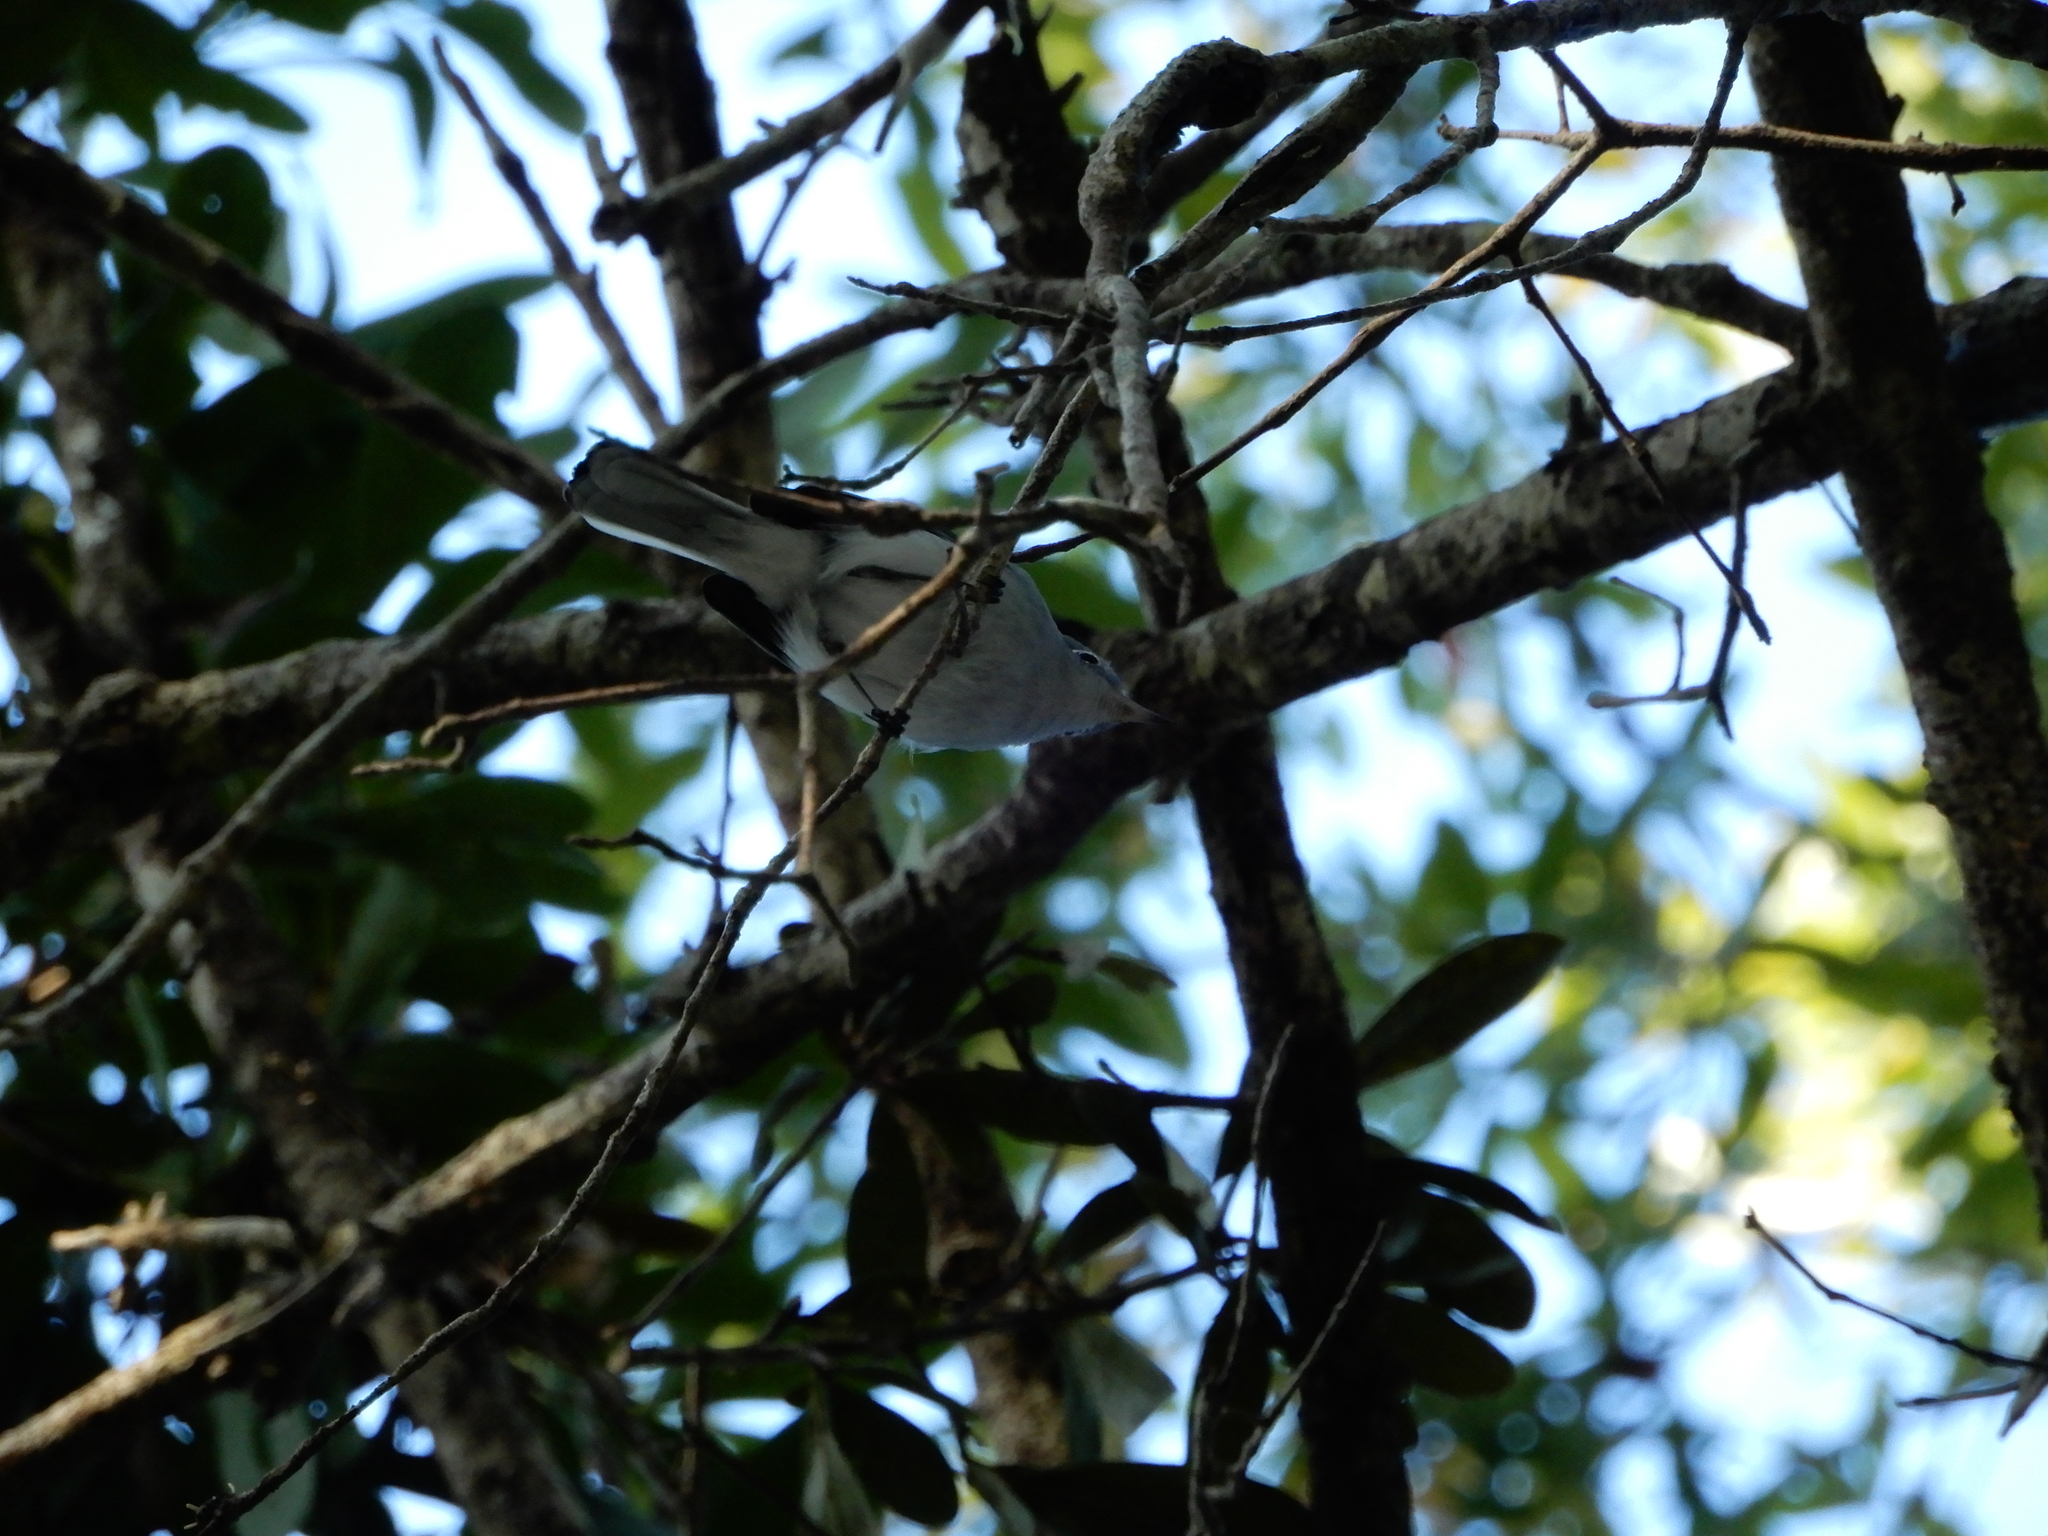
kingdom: Animalia
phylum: Chordata
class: Aves
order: Passeriformes
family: Polioptilidae
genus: Polioptila
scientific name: Polioptila caerulea
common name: Blue-gray gnatcatcher
